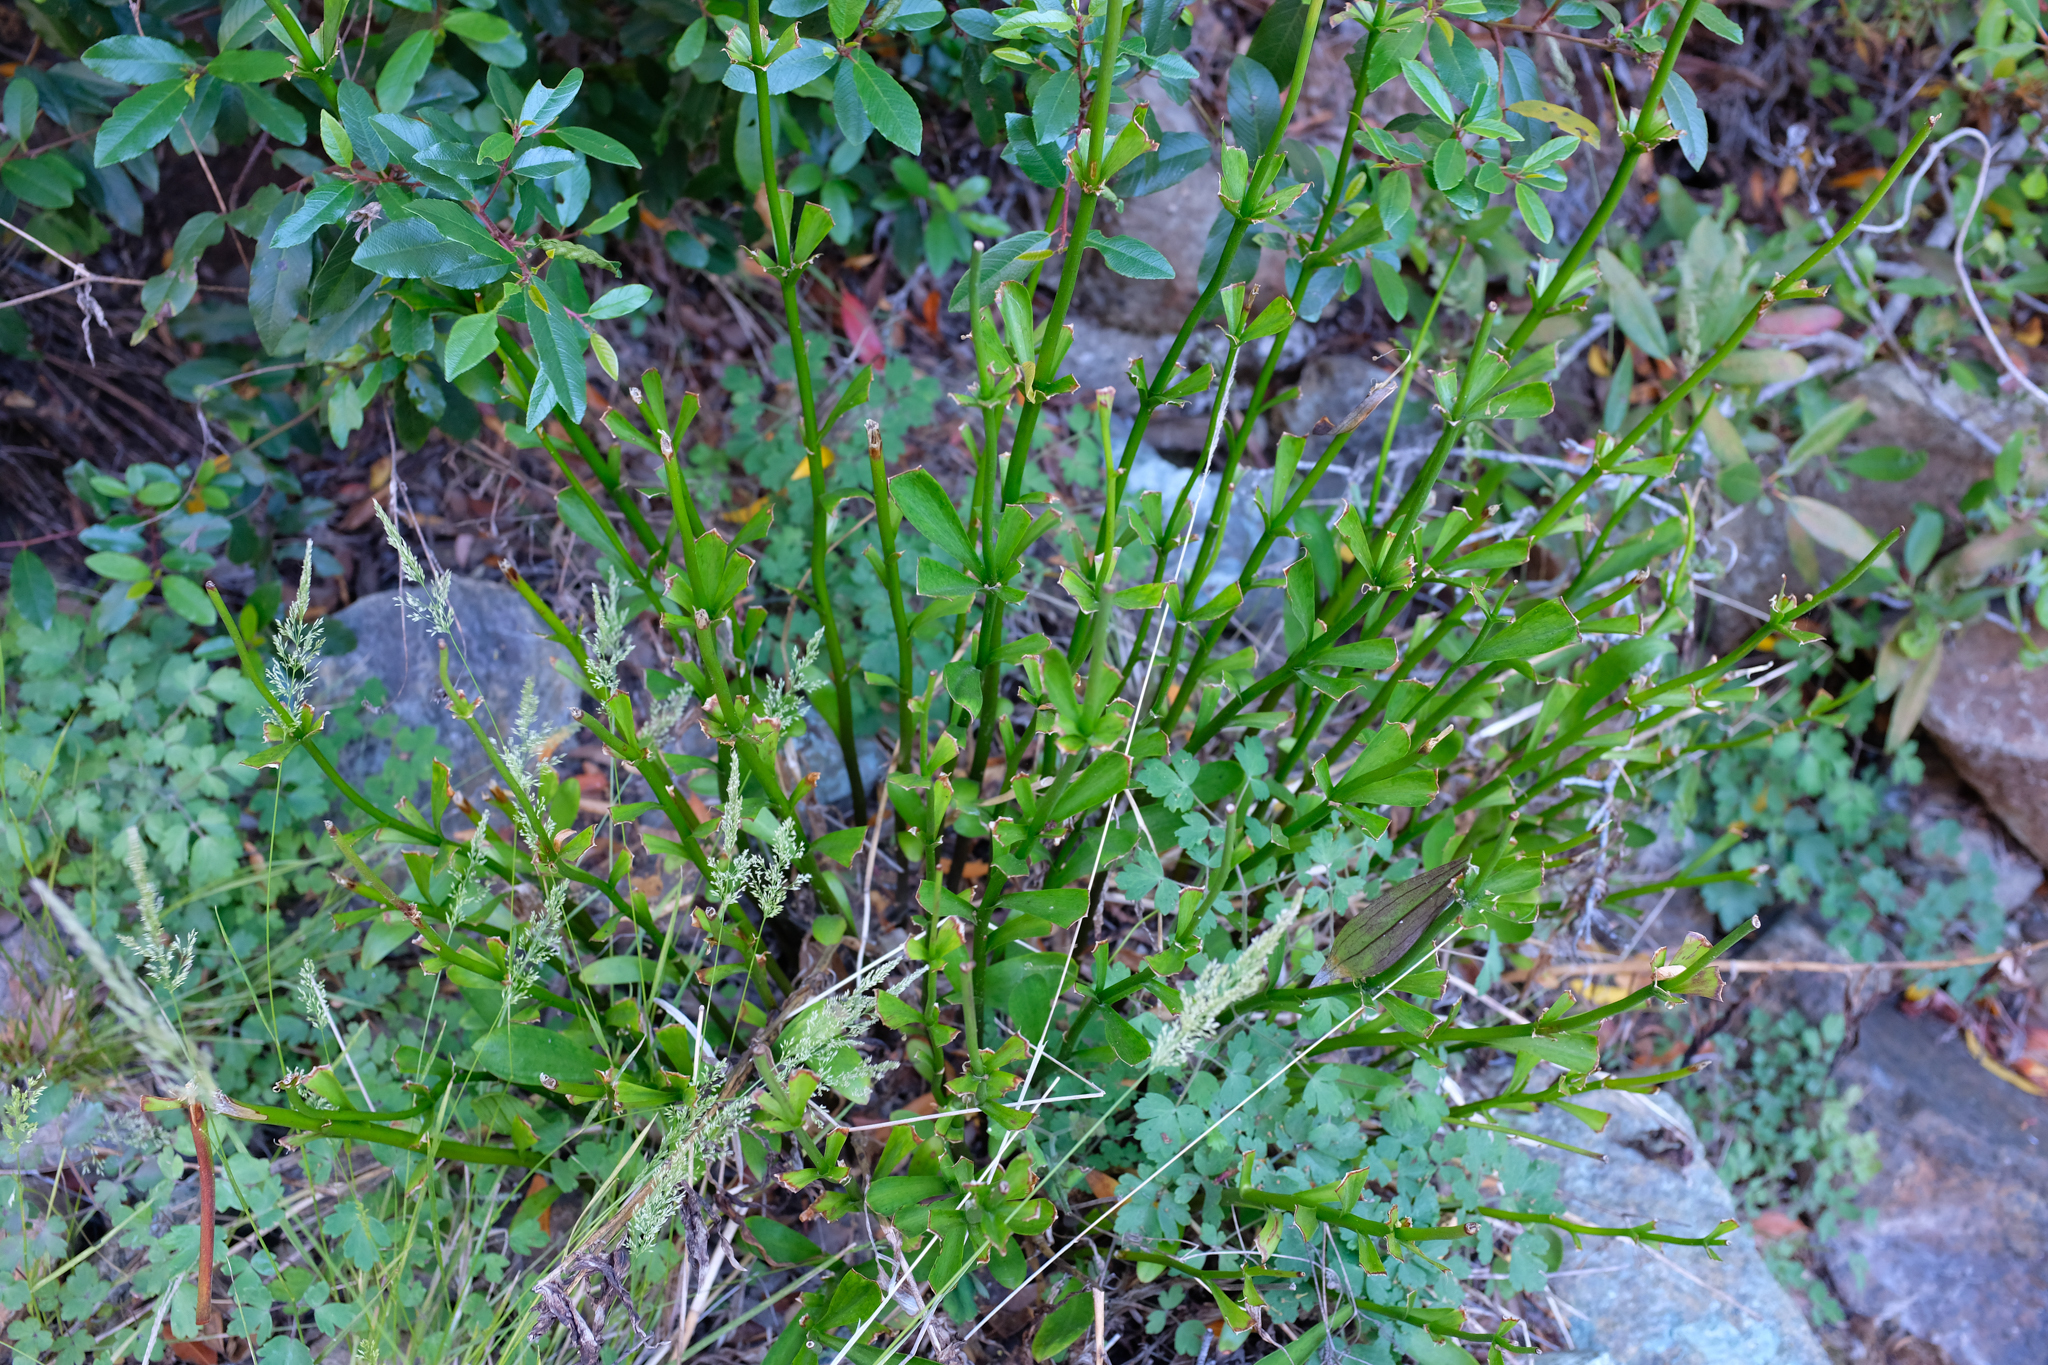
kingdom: Plantae
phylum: Tracheophyta
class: Liliopsida
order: Liliales
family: Liliaceae
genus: Lilium
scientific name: Lilium pardalinum
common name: Panther lily
